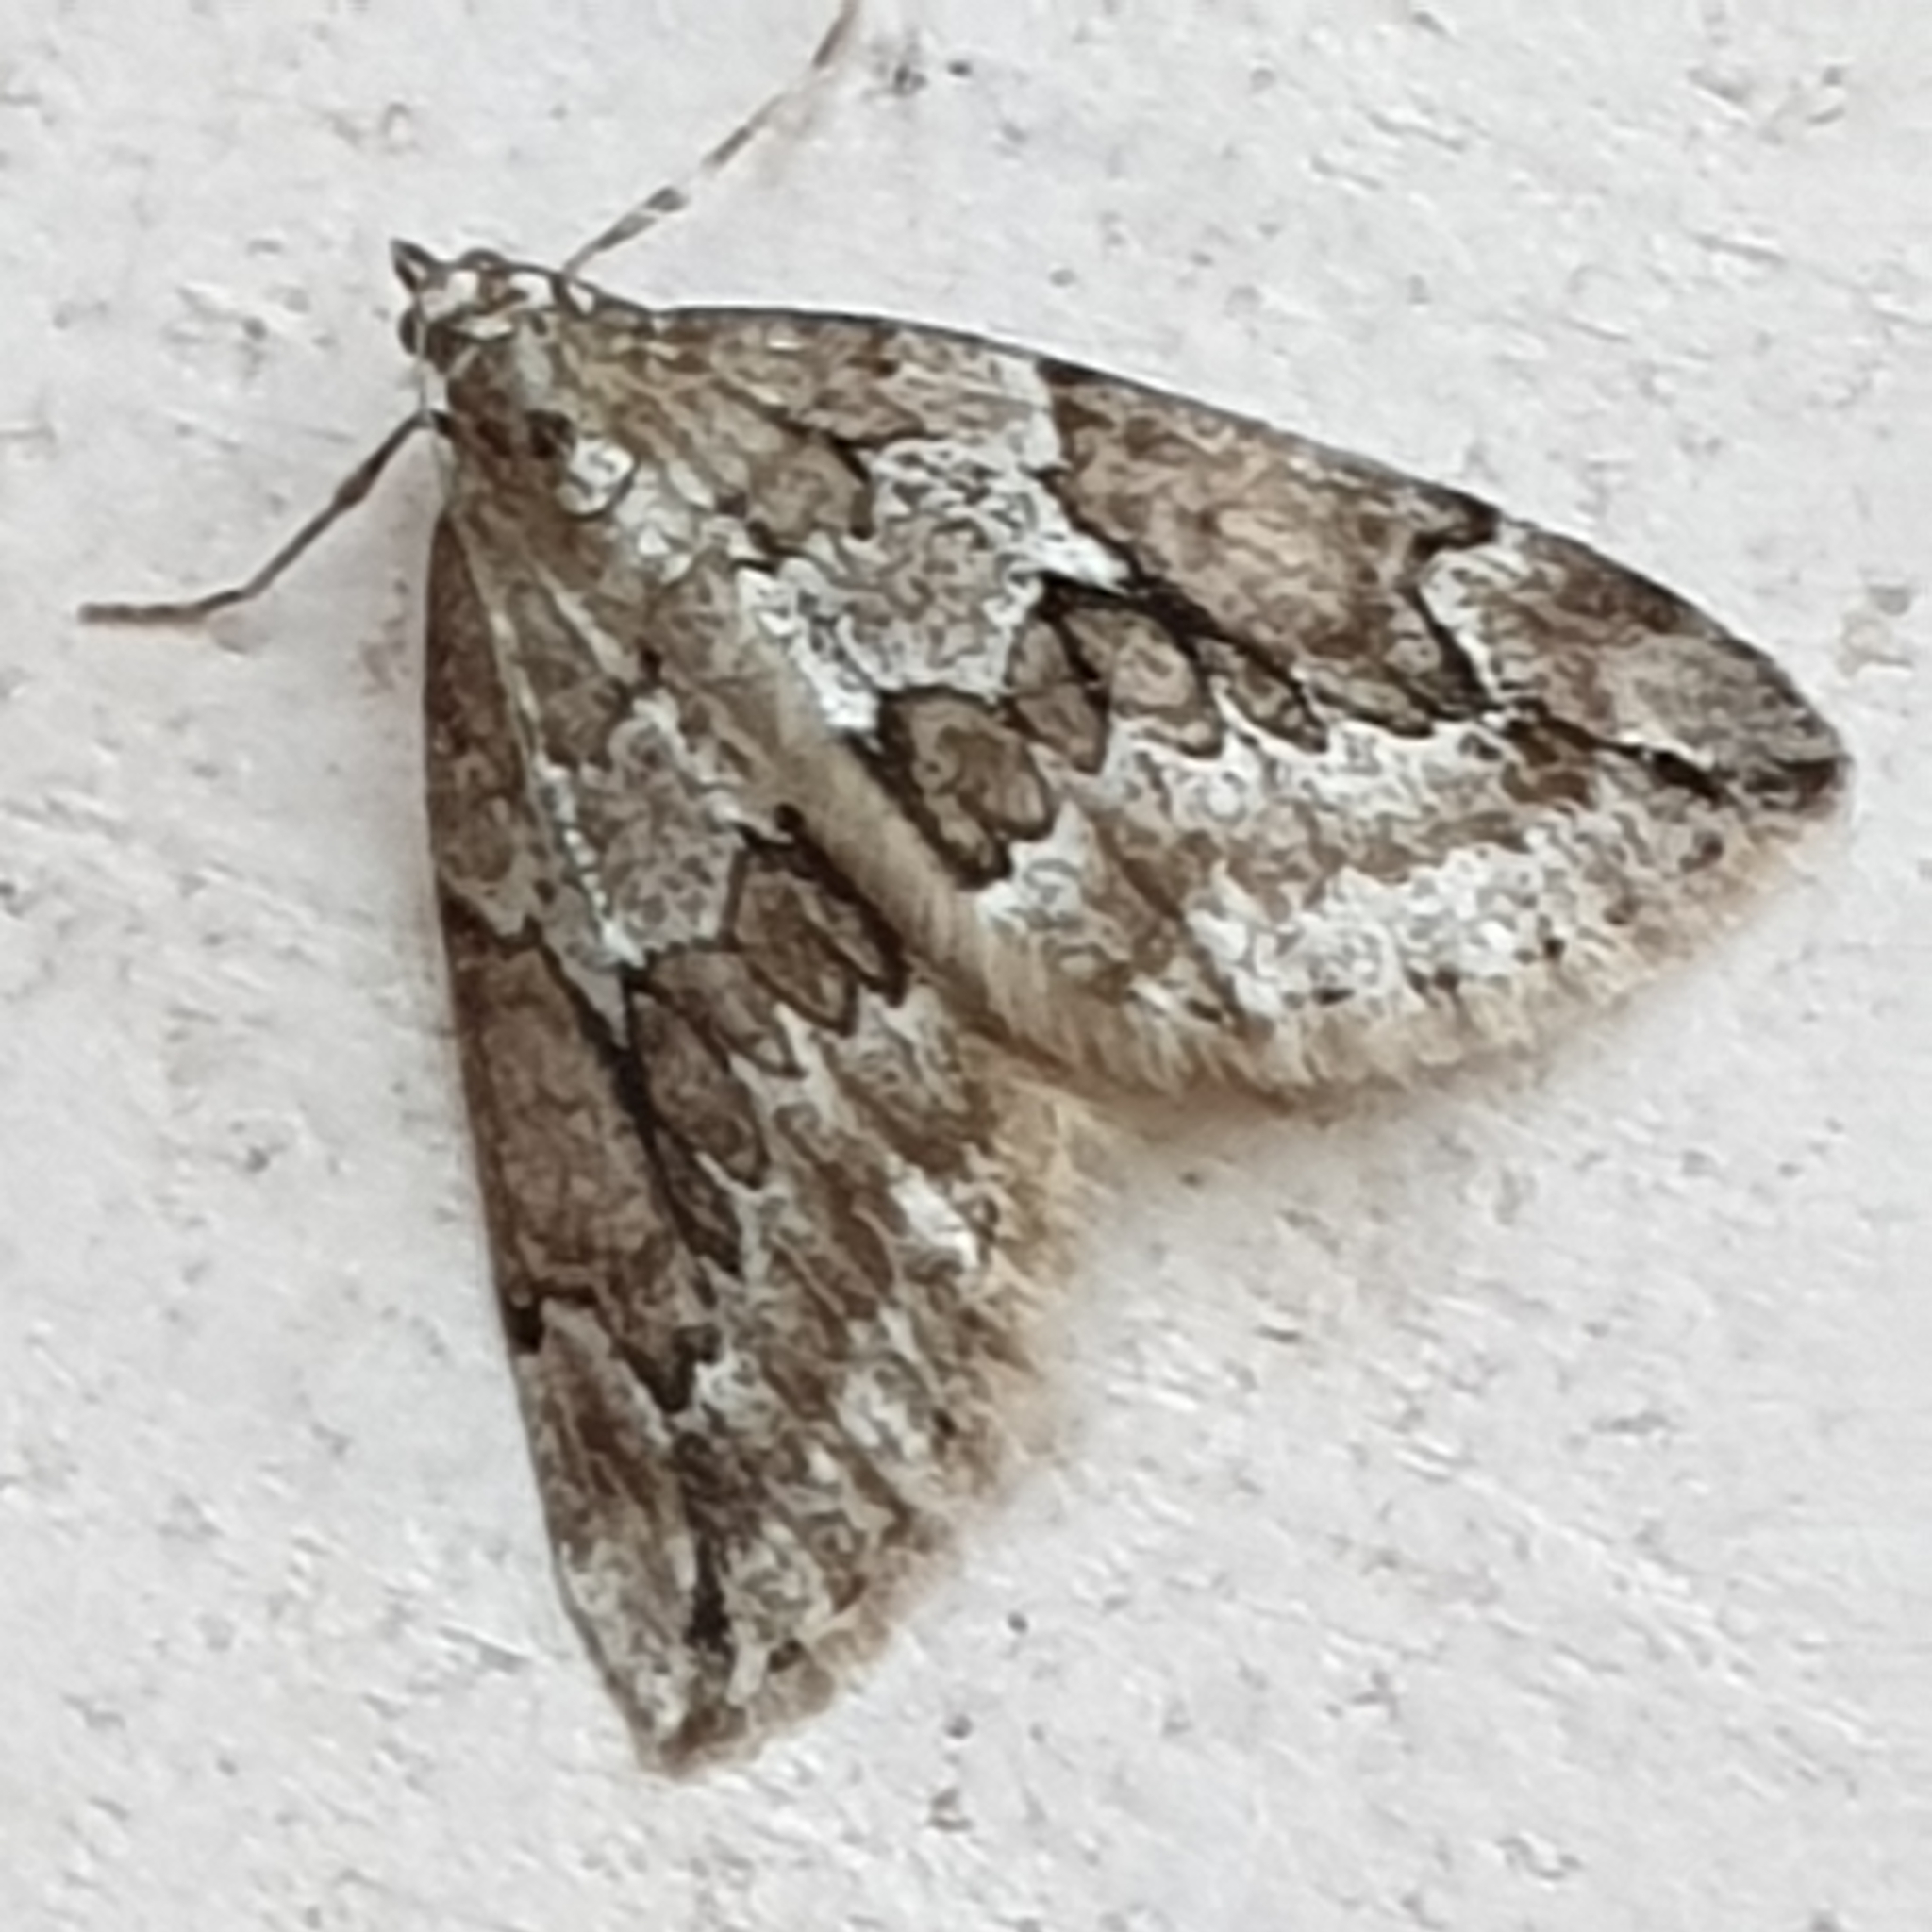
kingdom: Animalia
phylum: Arthropoda
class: Insecta
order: Lepidoptera
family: Geometridae
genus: Thera
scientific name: Thera juniperata
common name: Juniper carpet
